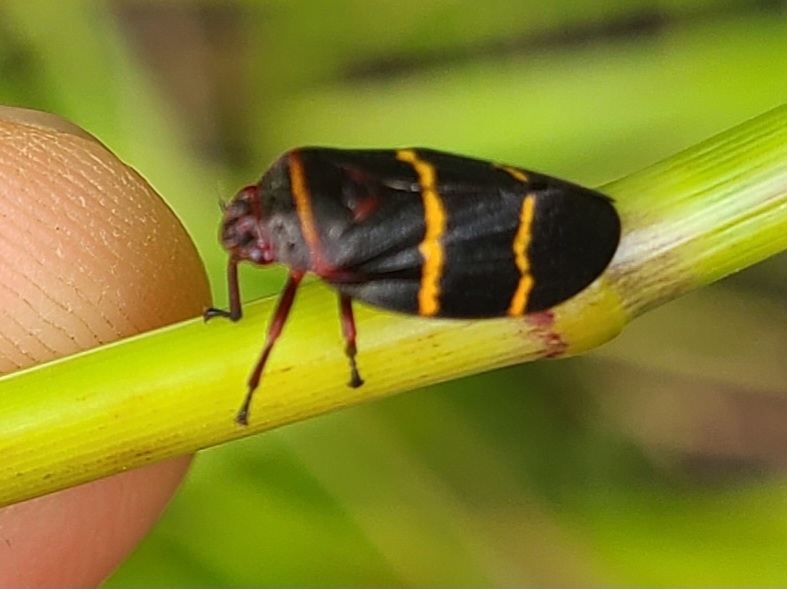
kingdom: Animalia
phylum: Arthropoda
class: Insecta
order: Hemiptera
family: Cercopidae
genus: Prosapia
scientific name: Prosapia bicincta
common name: Twolined spittlebug
